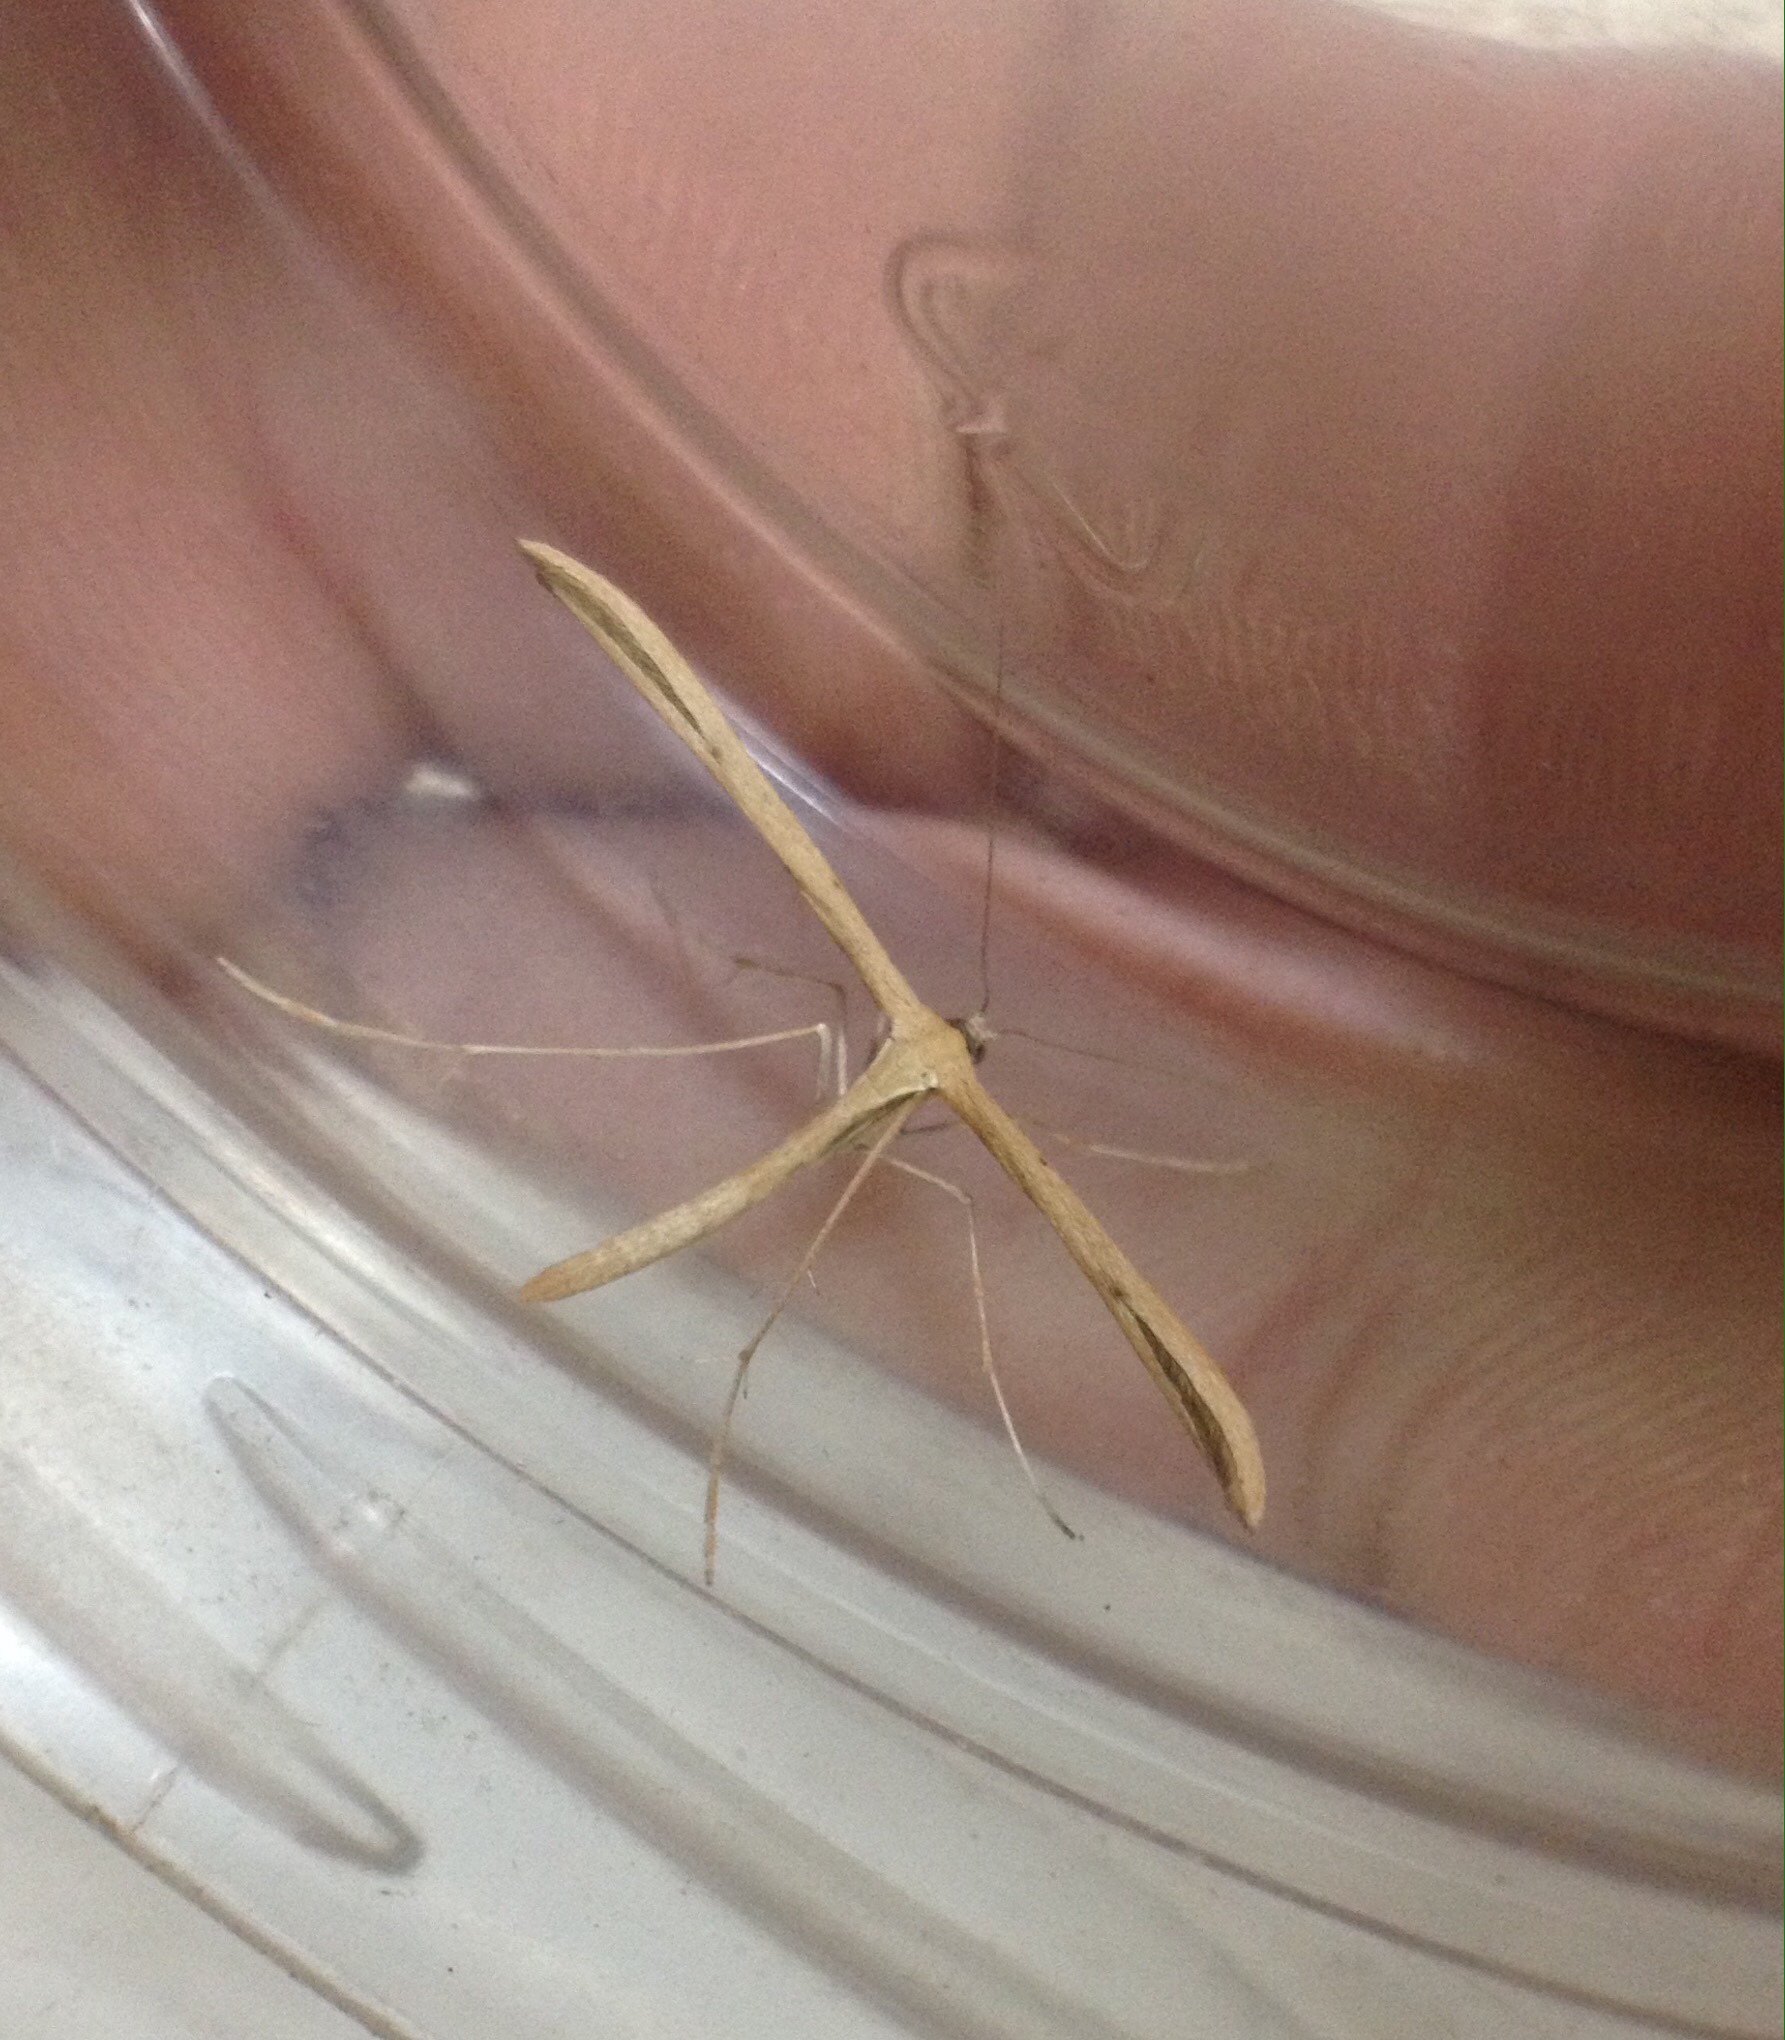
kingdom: Animalia
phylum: Arthropoda
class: Insecta
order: Lepidoptera
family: Pterophoridae
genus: Emmelina
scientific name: Emmelina monodactyla
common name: Common plume
